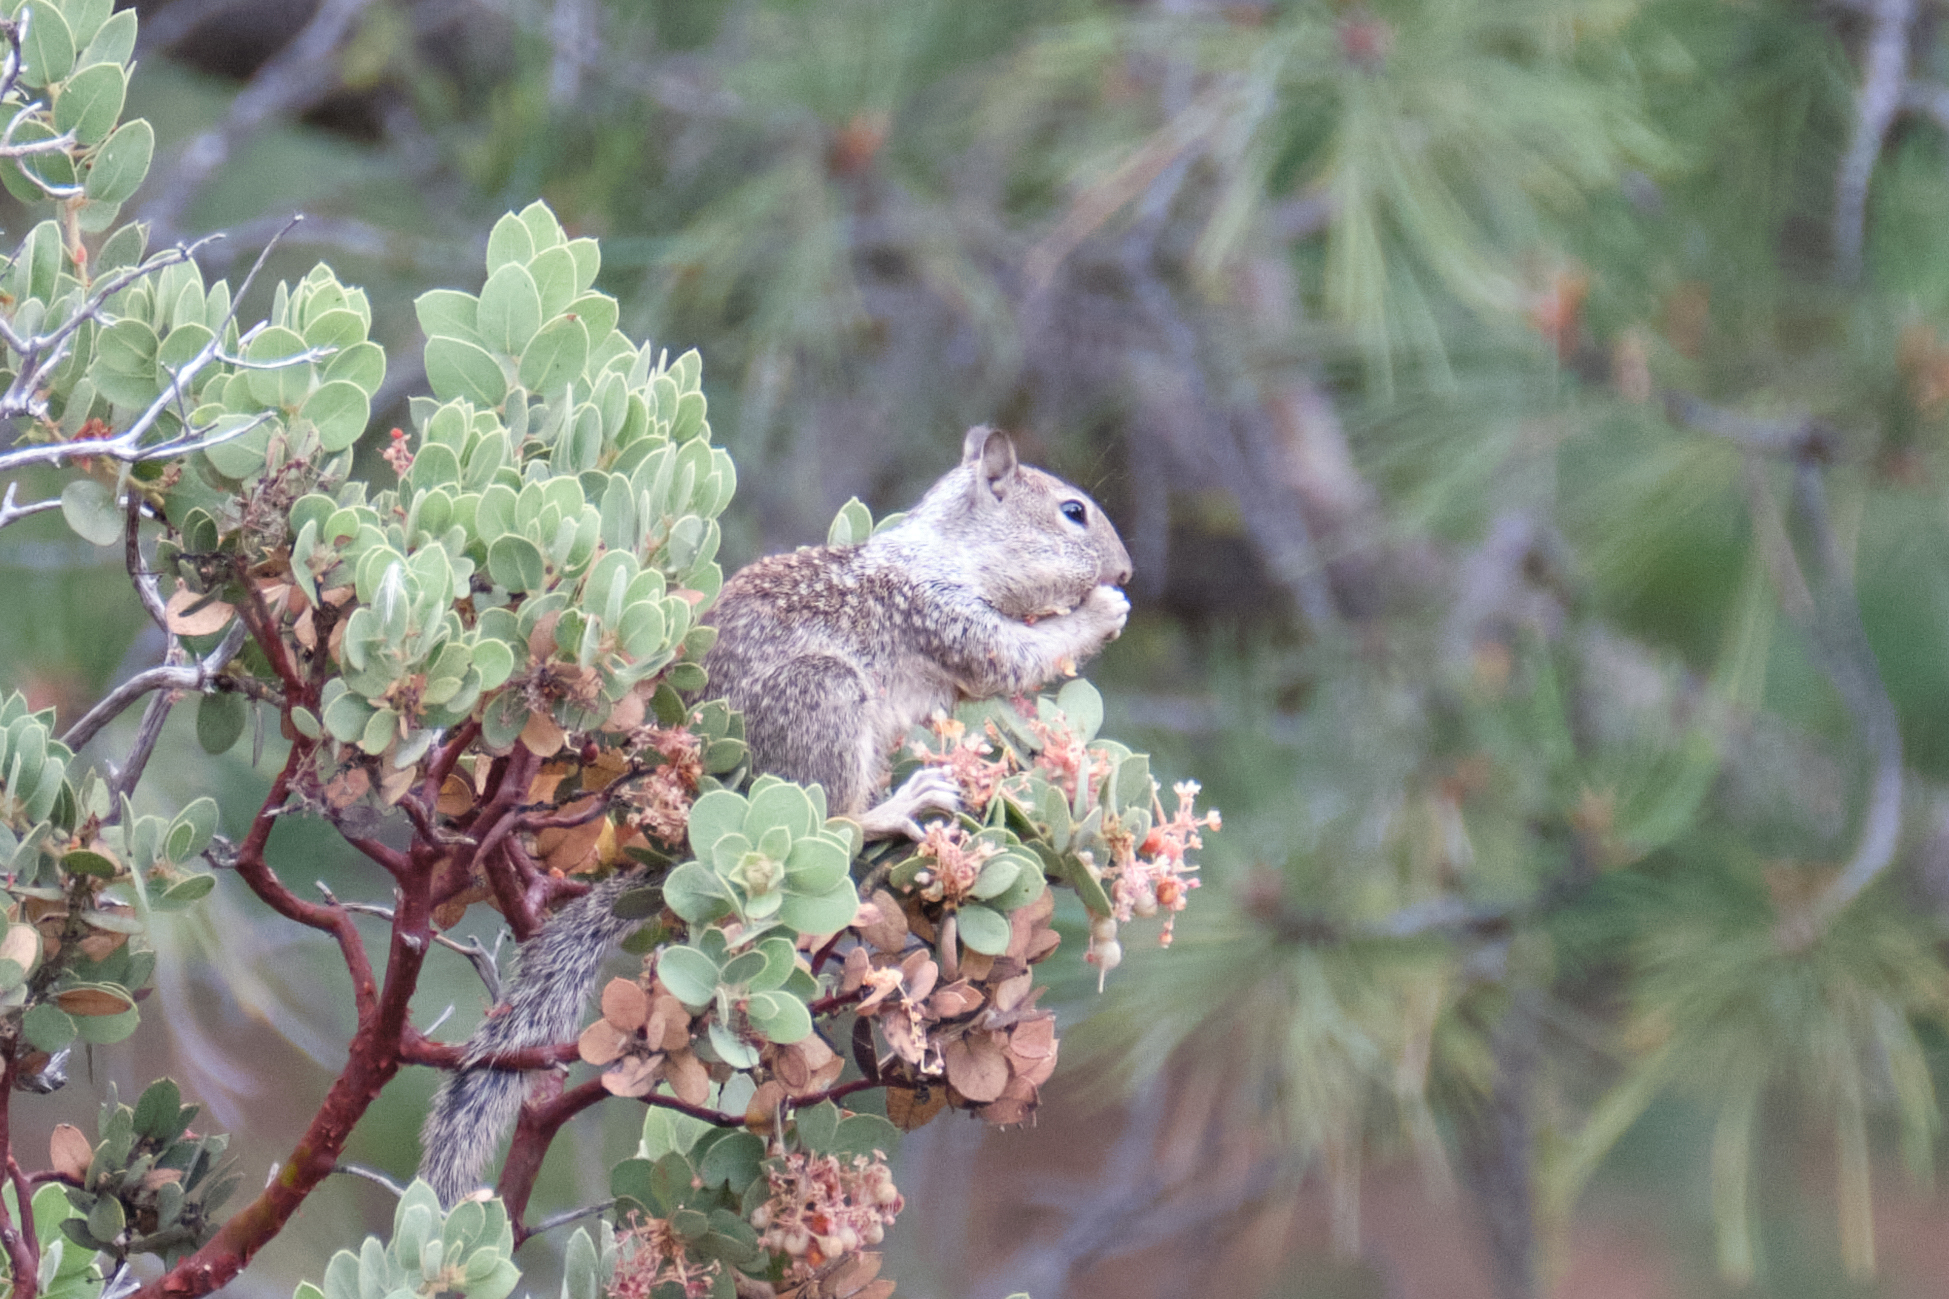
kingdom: Animalia
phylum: Chordata
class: Mammalia
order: Rodentia
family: Sciuridae
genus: Otospermophilus
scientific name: Otospermophilus beecheyi
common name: California ground squirrel
